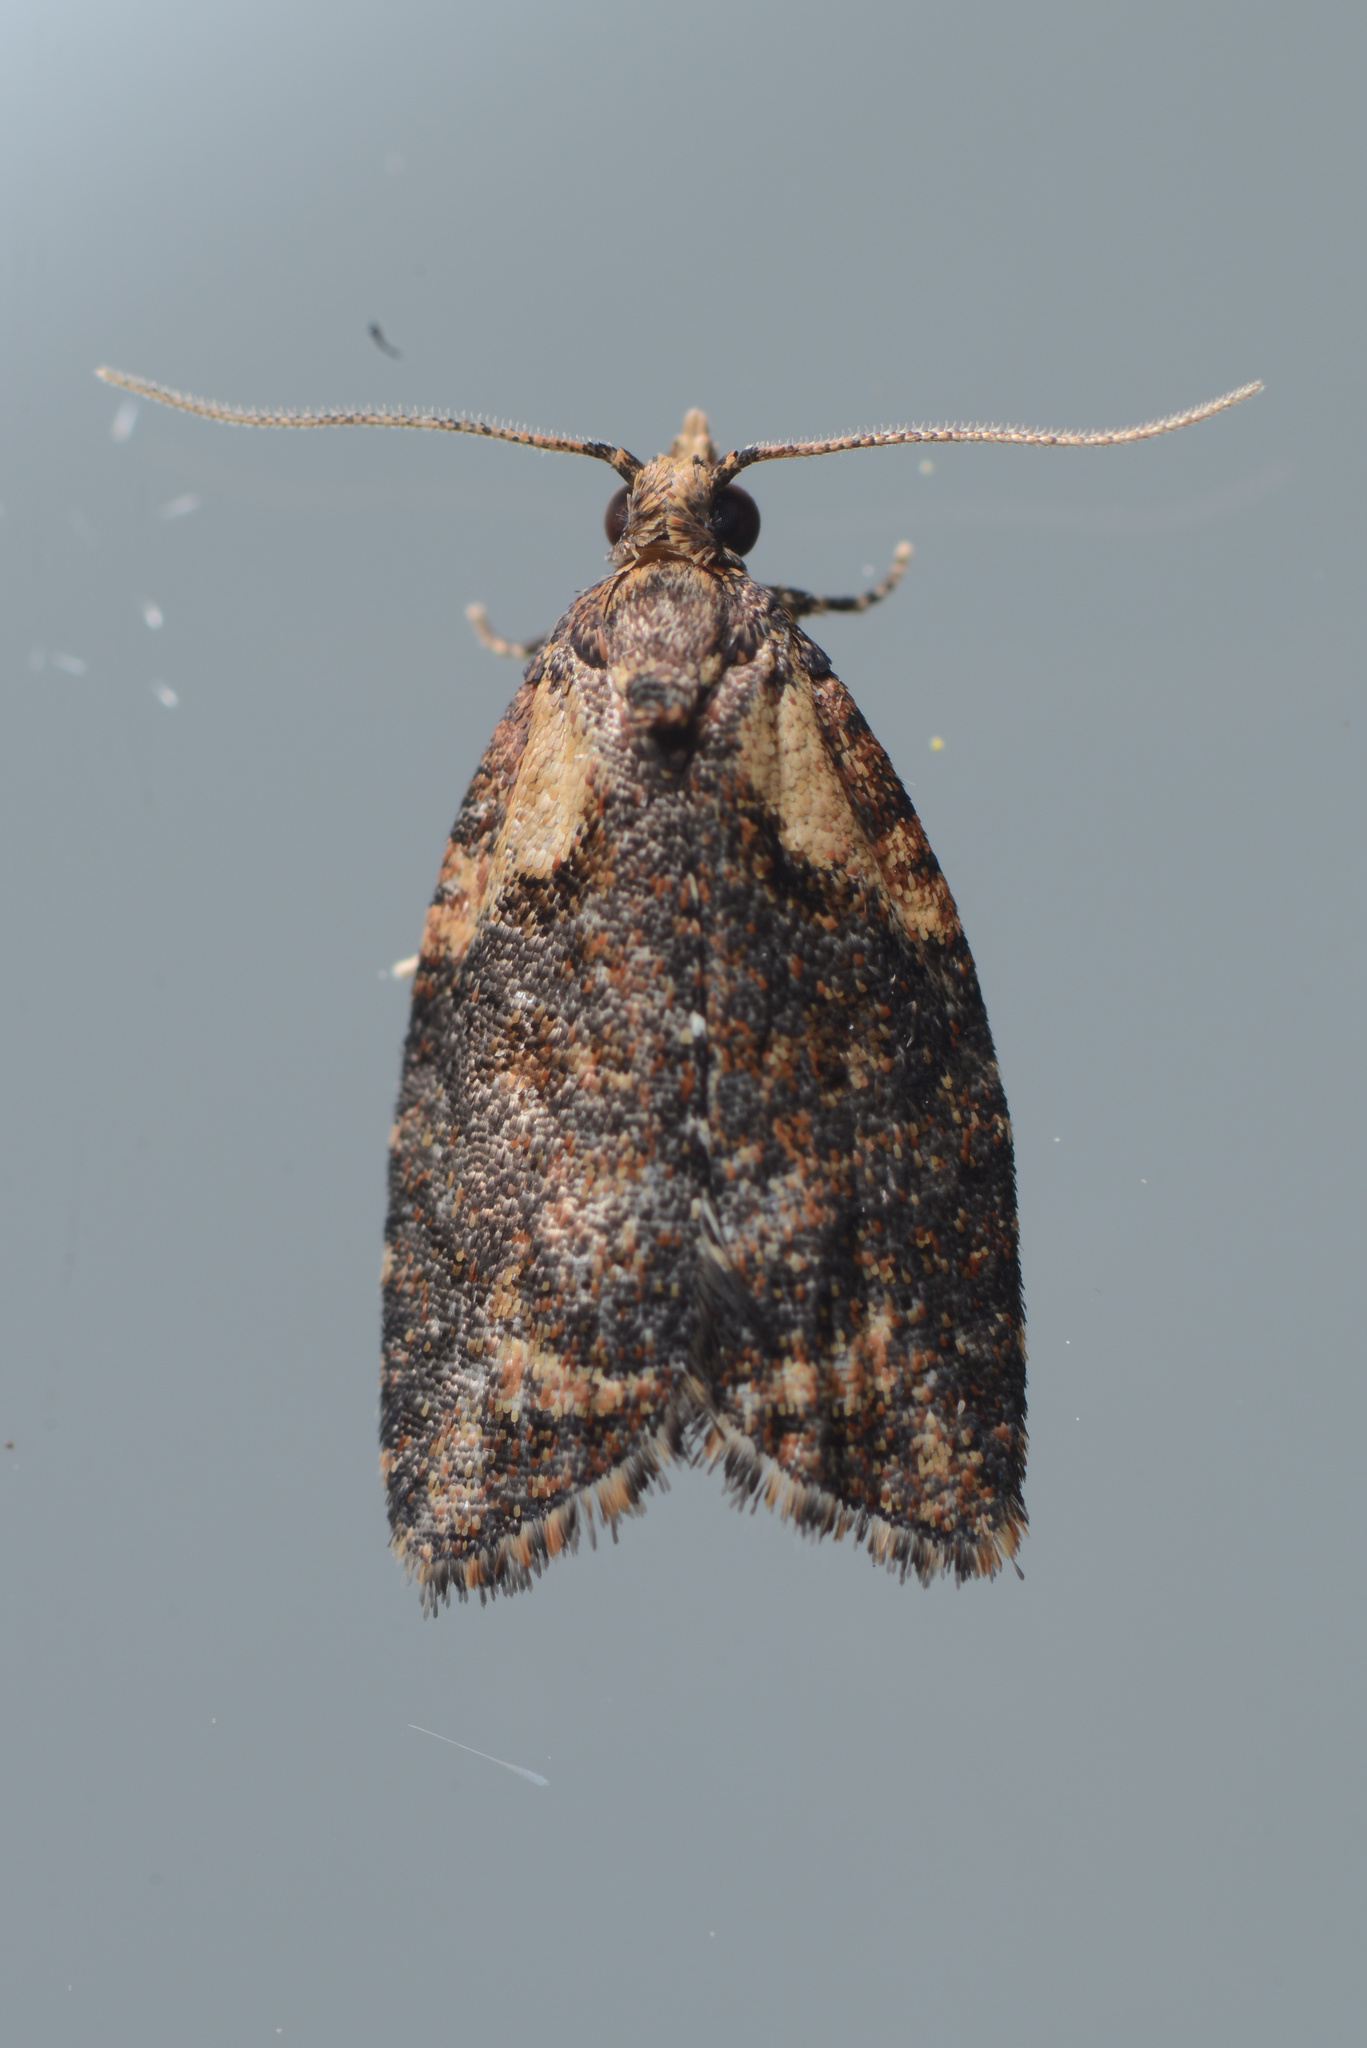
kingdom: Animalia
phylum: Arthropoda
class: Insecta
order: Lepidoptera
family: Tortricidae
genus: Capua
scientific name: Capua intractana
